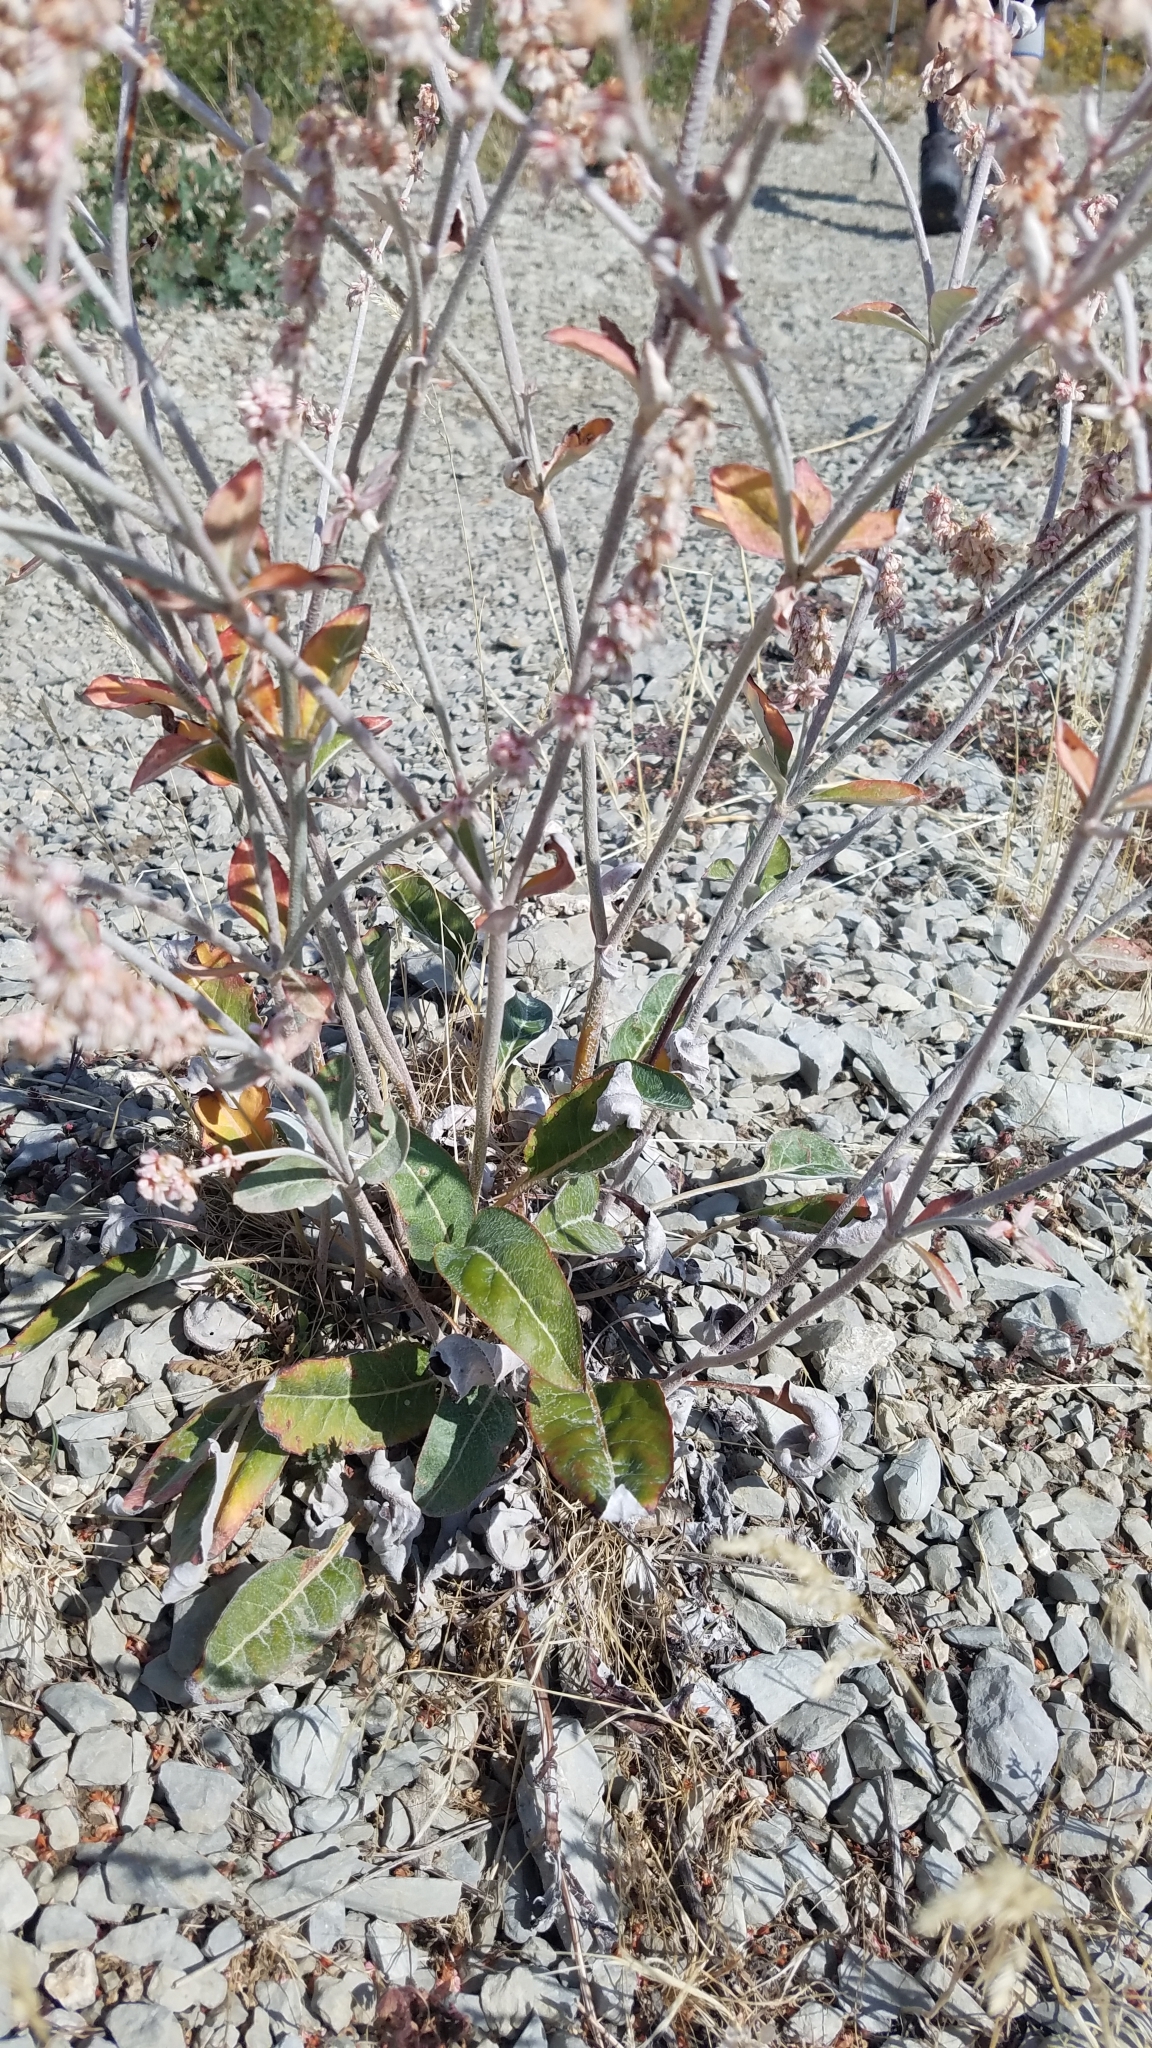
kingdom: Plantae
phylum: Tracheophyta
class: Magnoliopsida
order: Caryophyllales
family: Polygonaceae
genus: Eriogonum
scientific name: Eriogonum racemosum
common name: Redroot wild buckwheat
